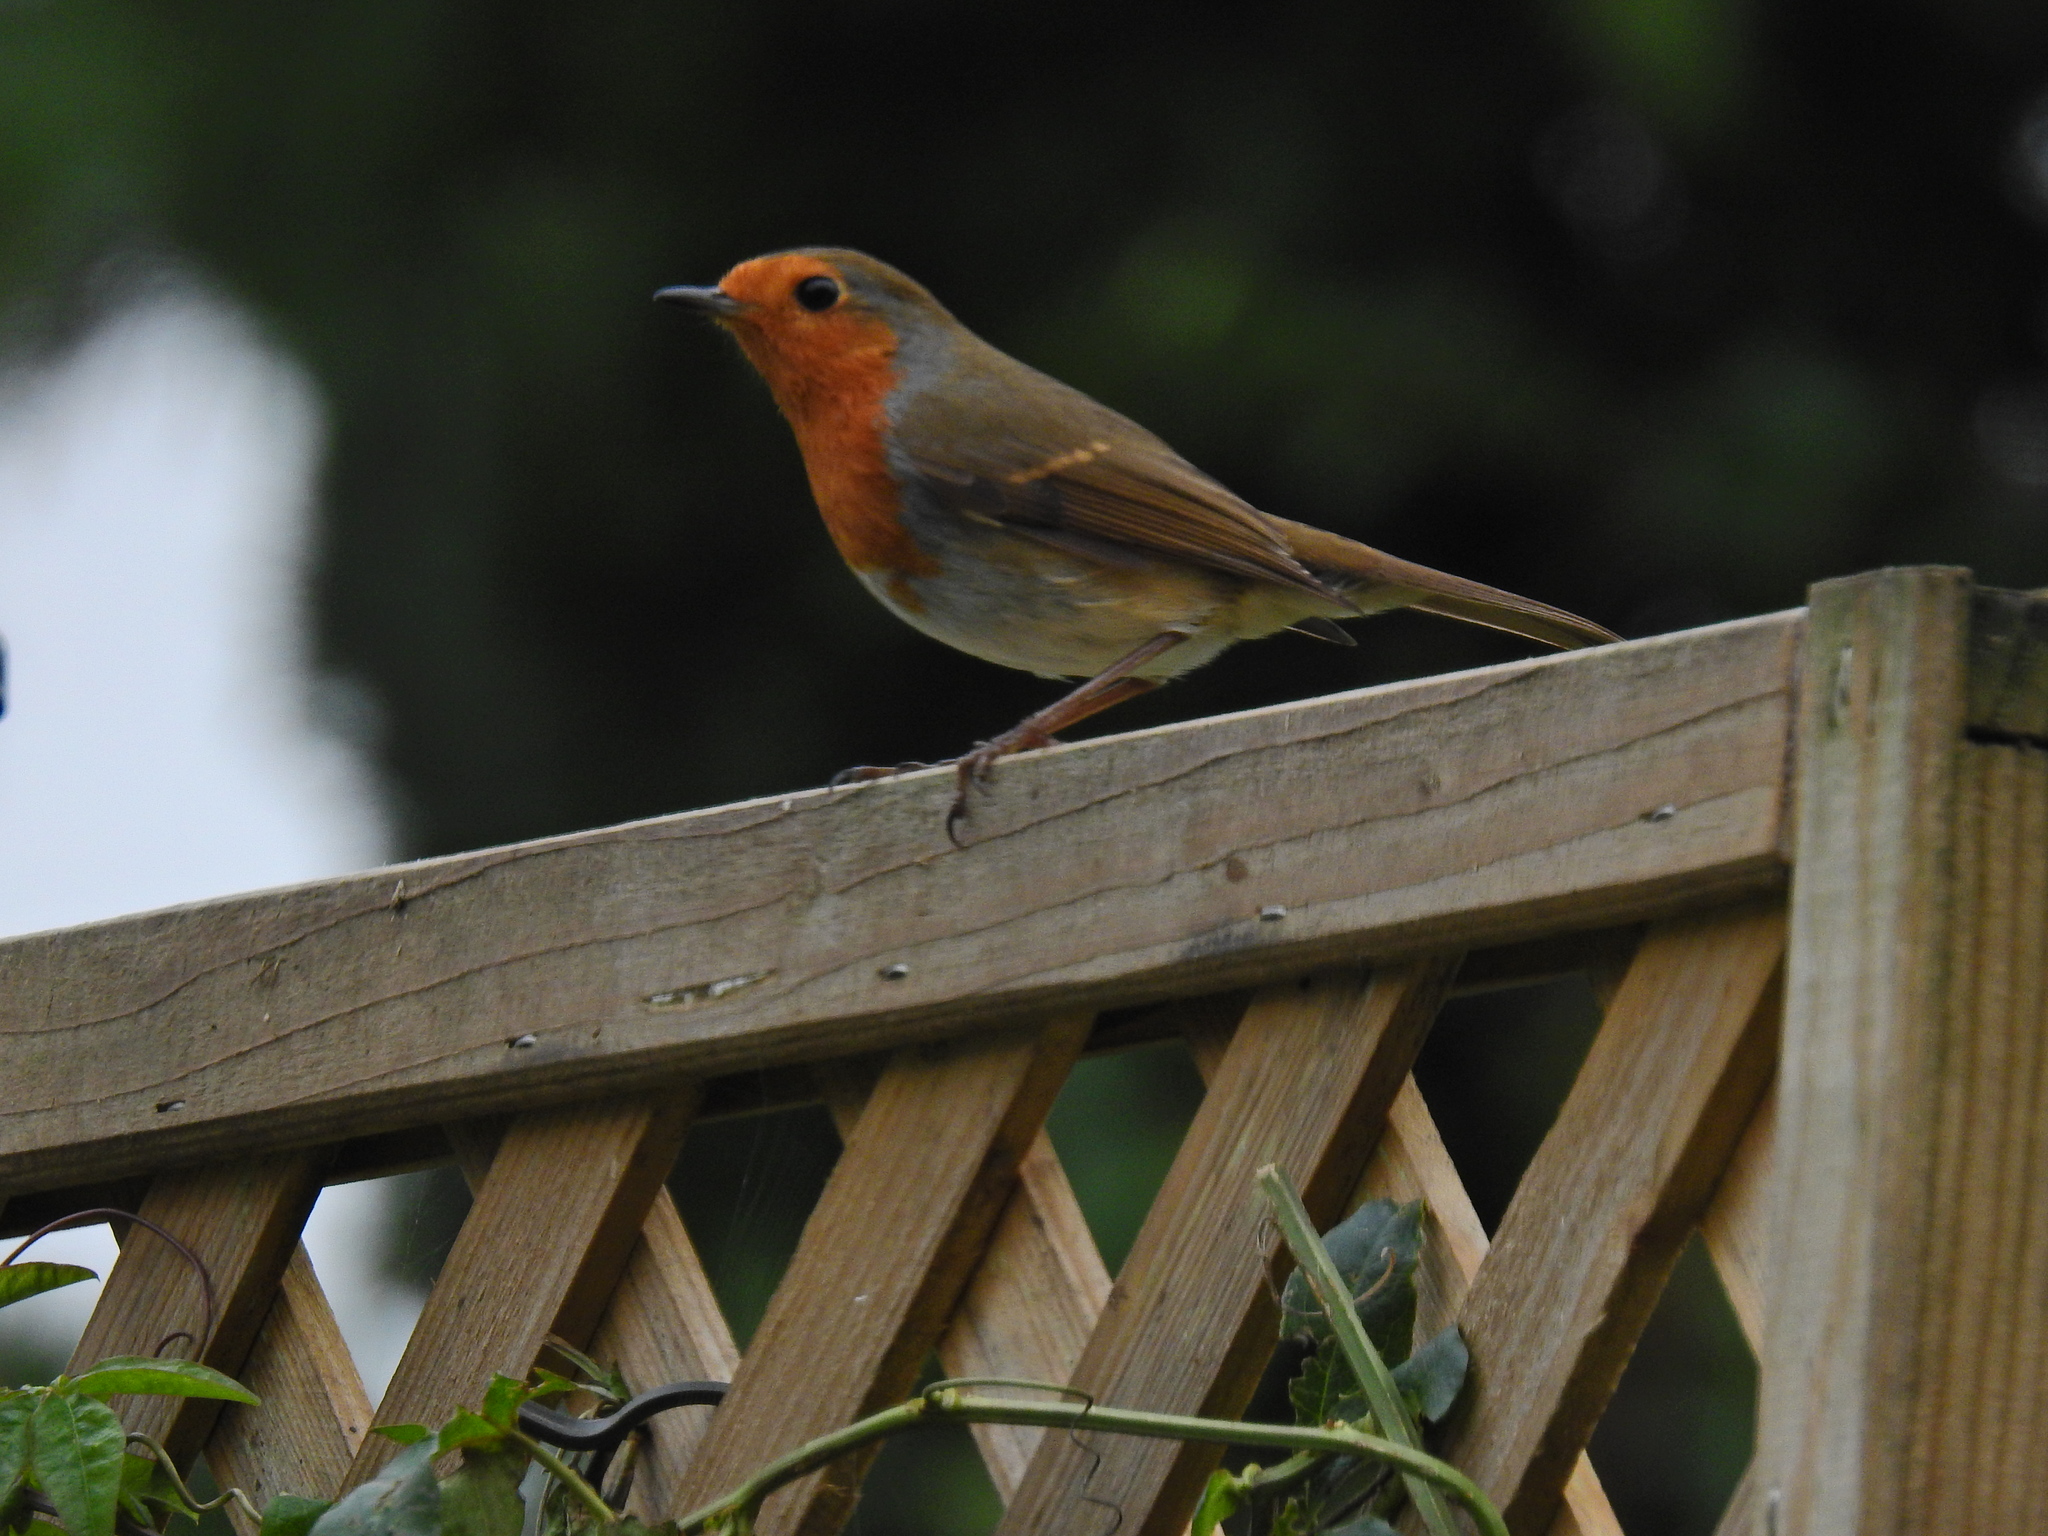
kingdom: Animalia
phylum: Chordata
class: Aves
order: Passeriformes
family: Muscicapidae
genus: Erithacus
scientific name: Erithacus rubecula
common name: European robin
